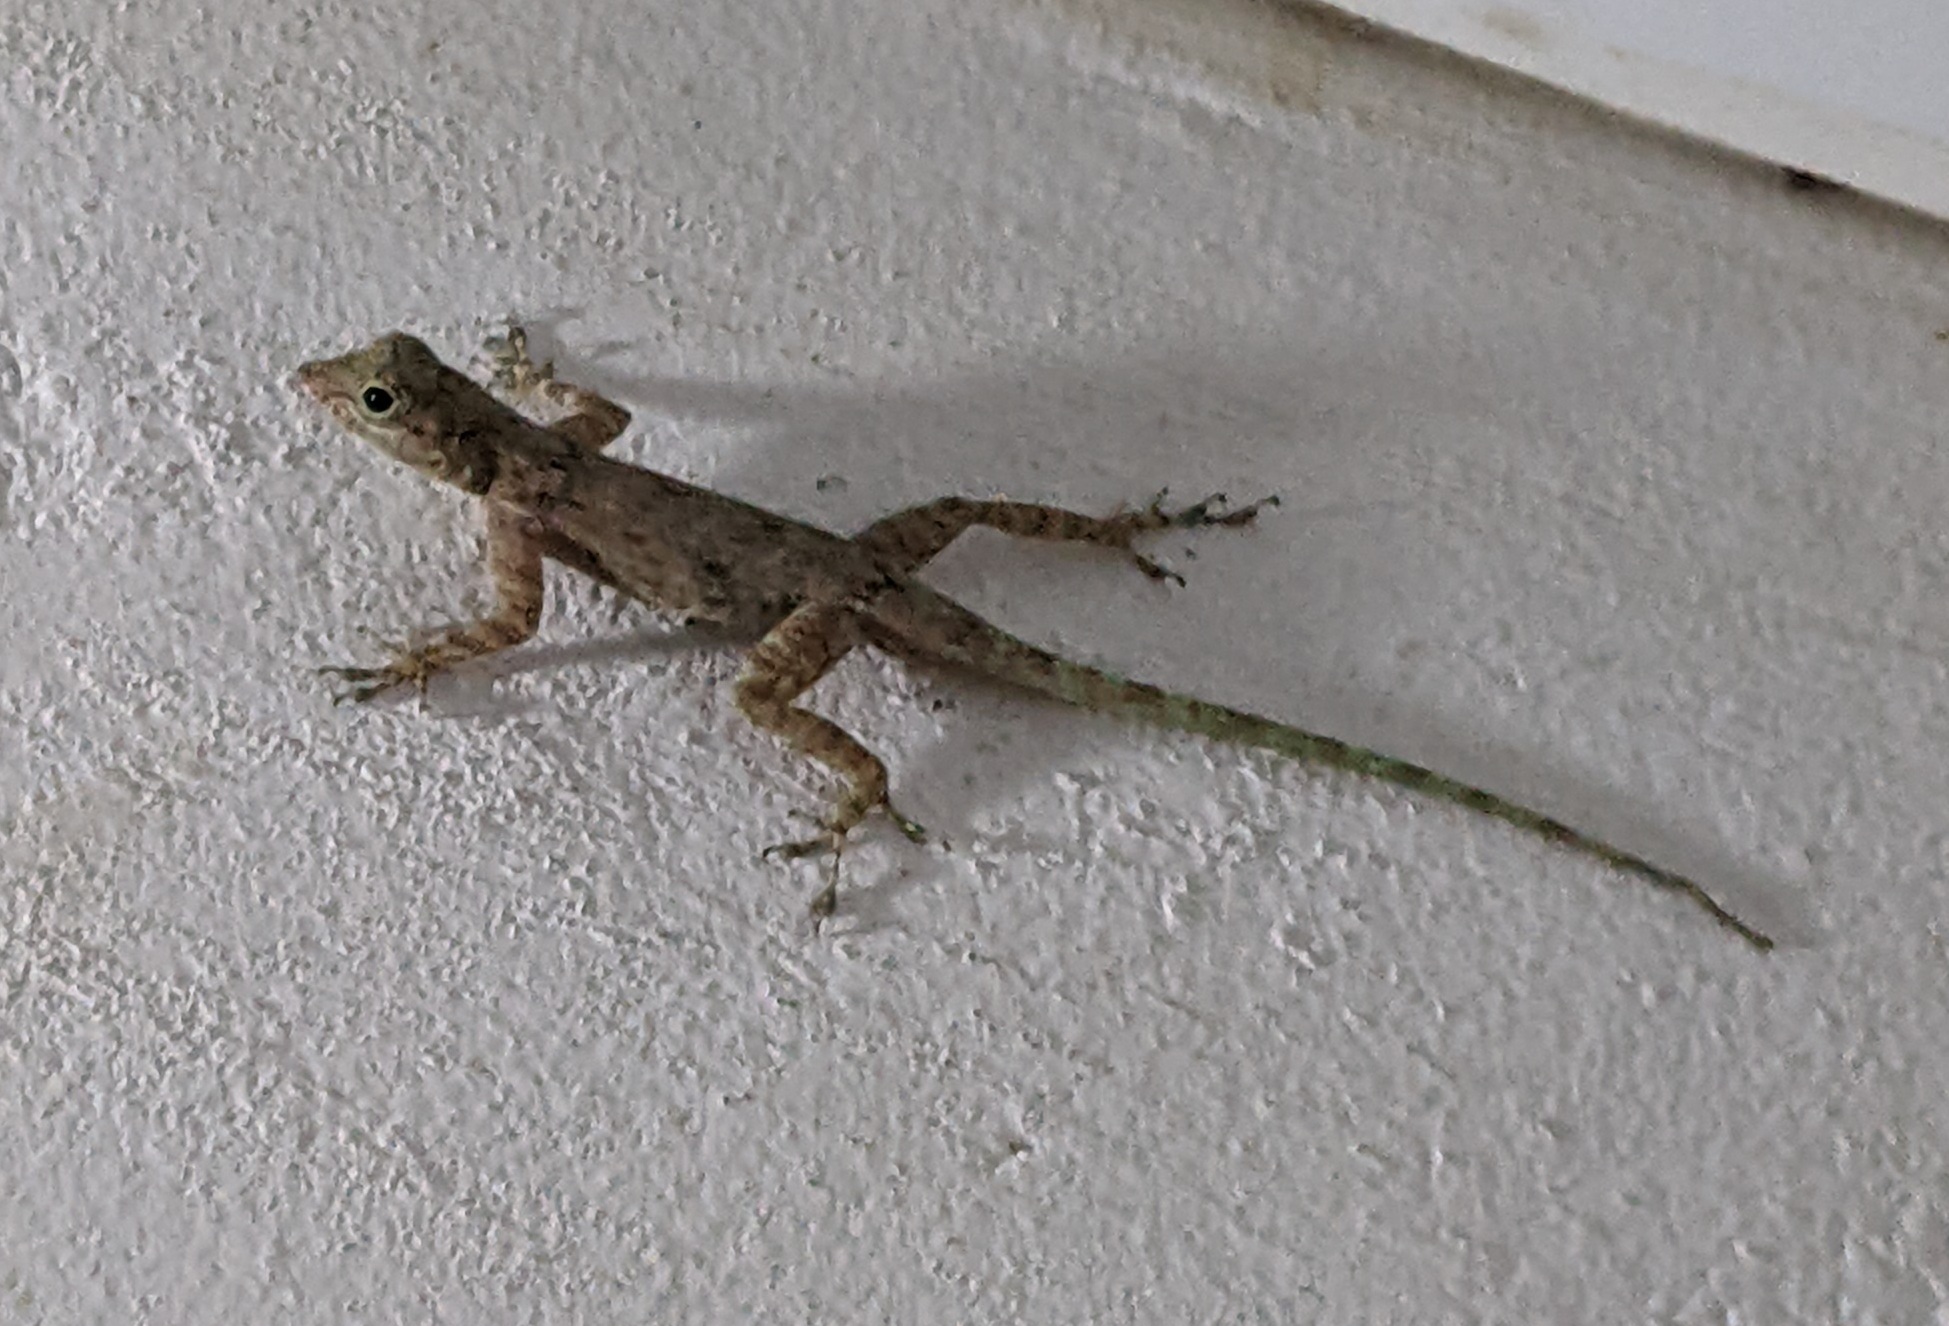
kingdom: Animalia
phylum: Chordata
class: Squamata
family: Dactyloidae
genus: Anolis
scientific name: Anolis distichus
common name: Bark anole
